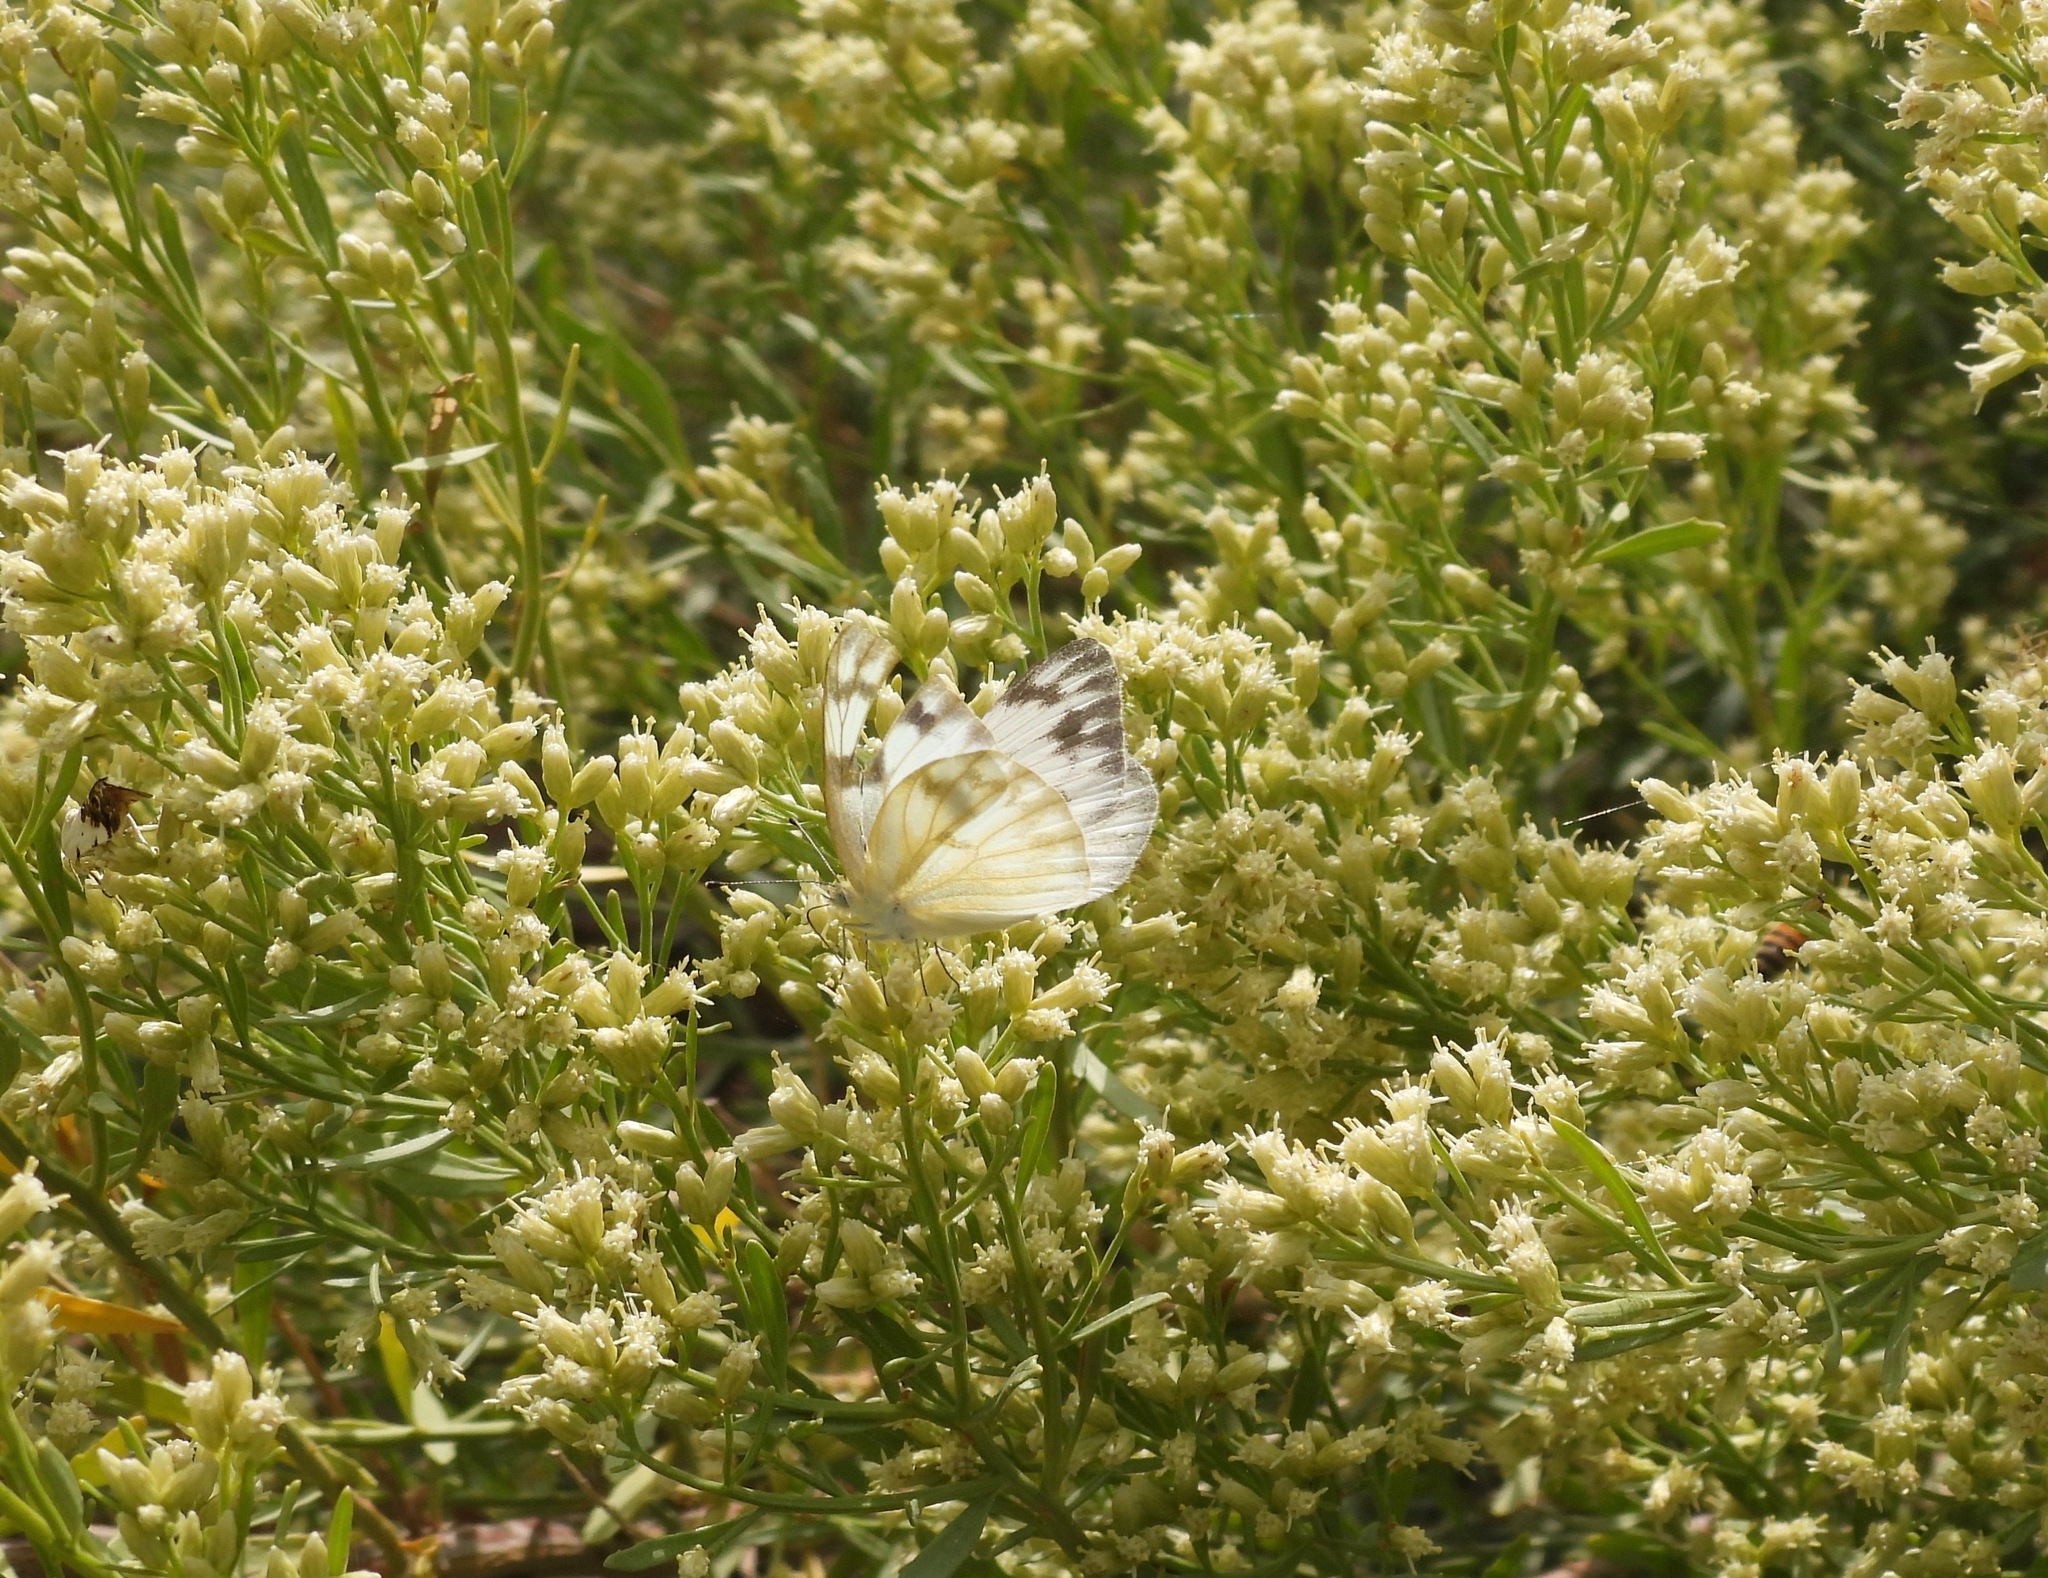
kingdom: Animalia
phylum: Arthropoda
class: Insecta
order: Lepidoptera
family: Pieridae
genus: Pontia
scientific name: Pontia protodice
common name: Checkered white
